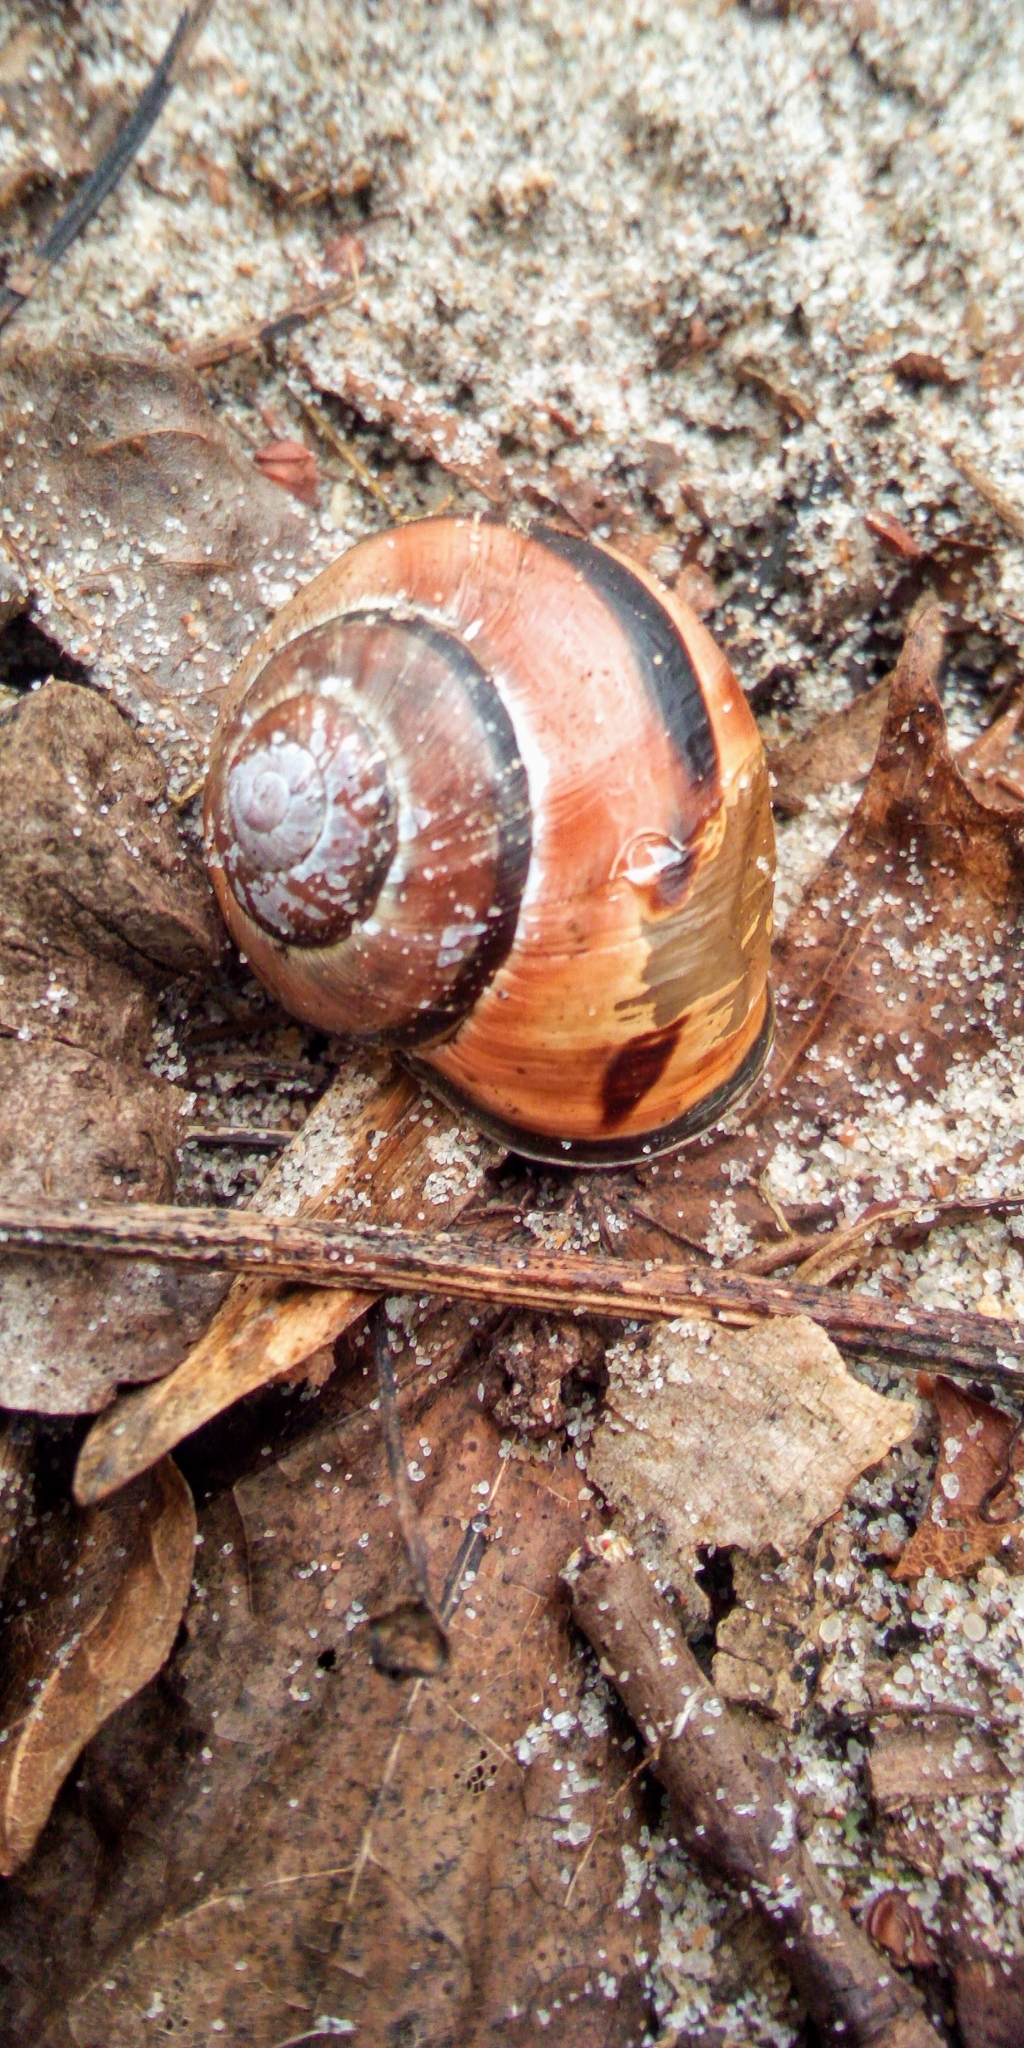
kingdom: Animalia
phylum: Mollusca
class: Gastropoda
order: Stylommatophora
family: Helicidae
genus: Cepaea
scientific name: Cepaea nemoralis
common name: Grovesnail
